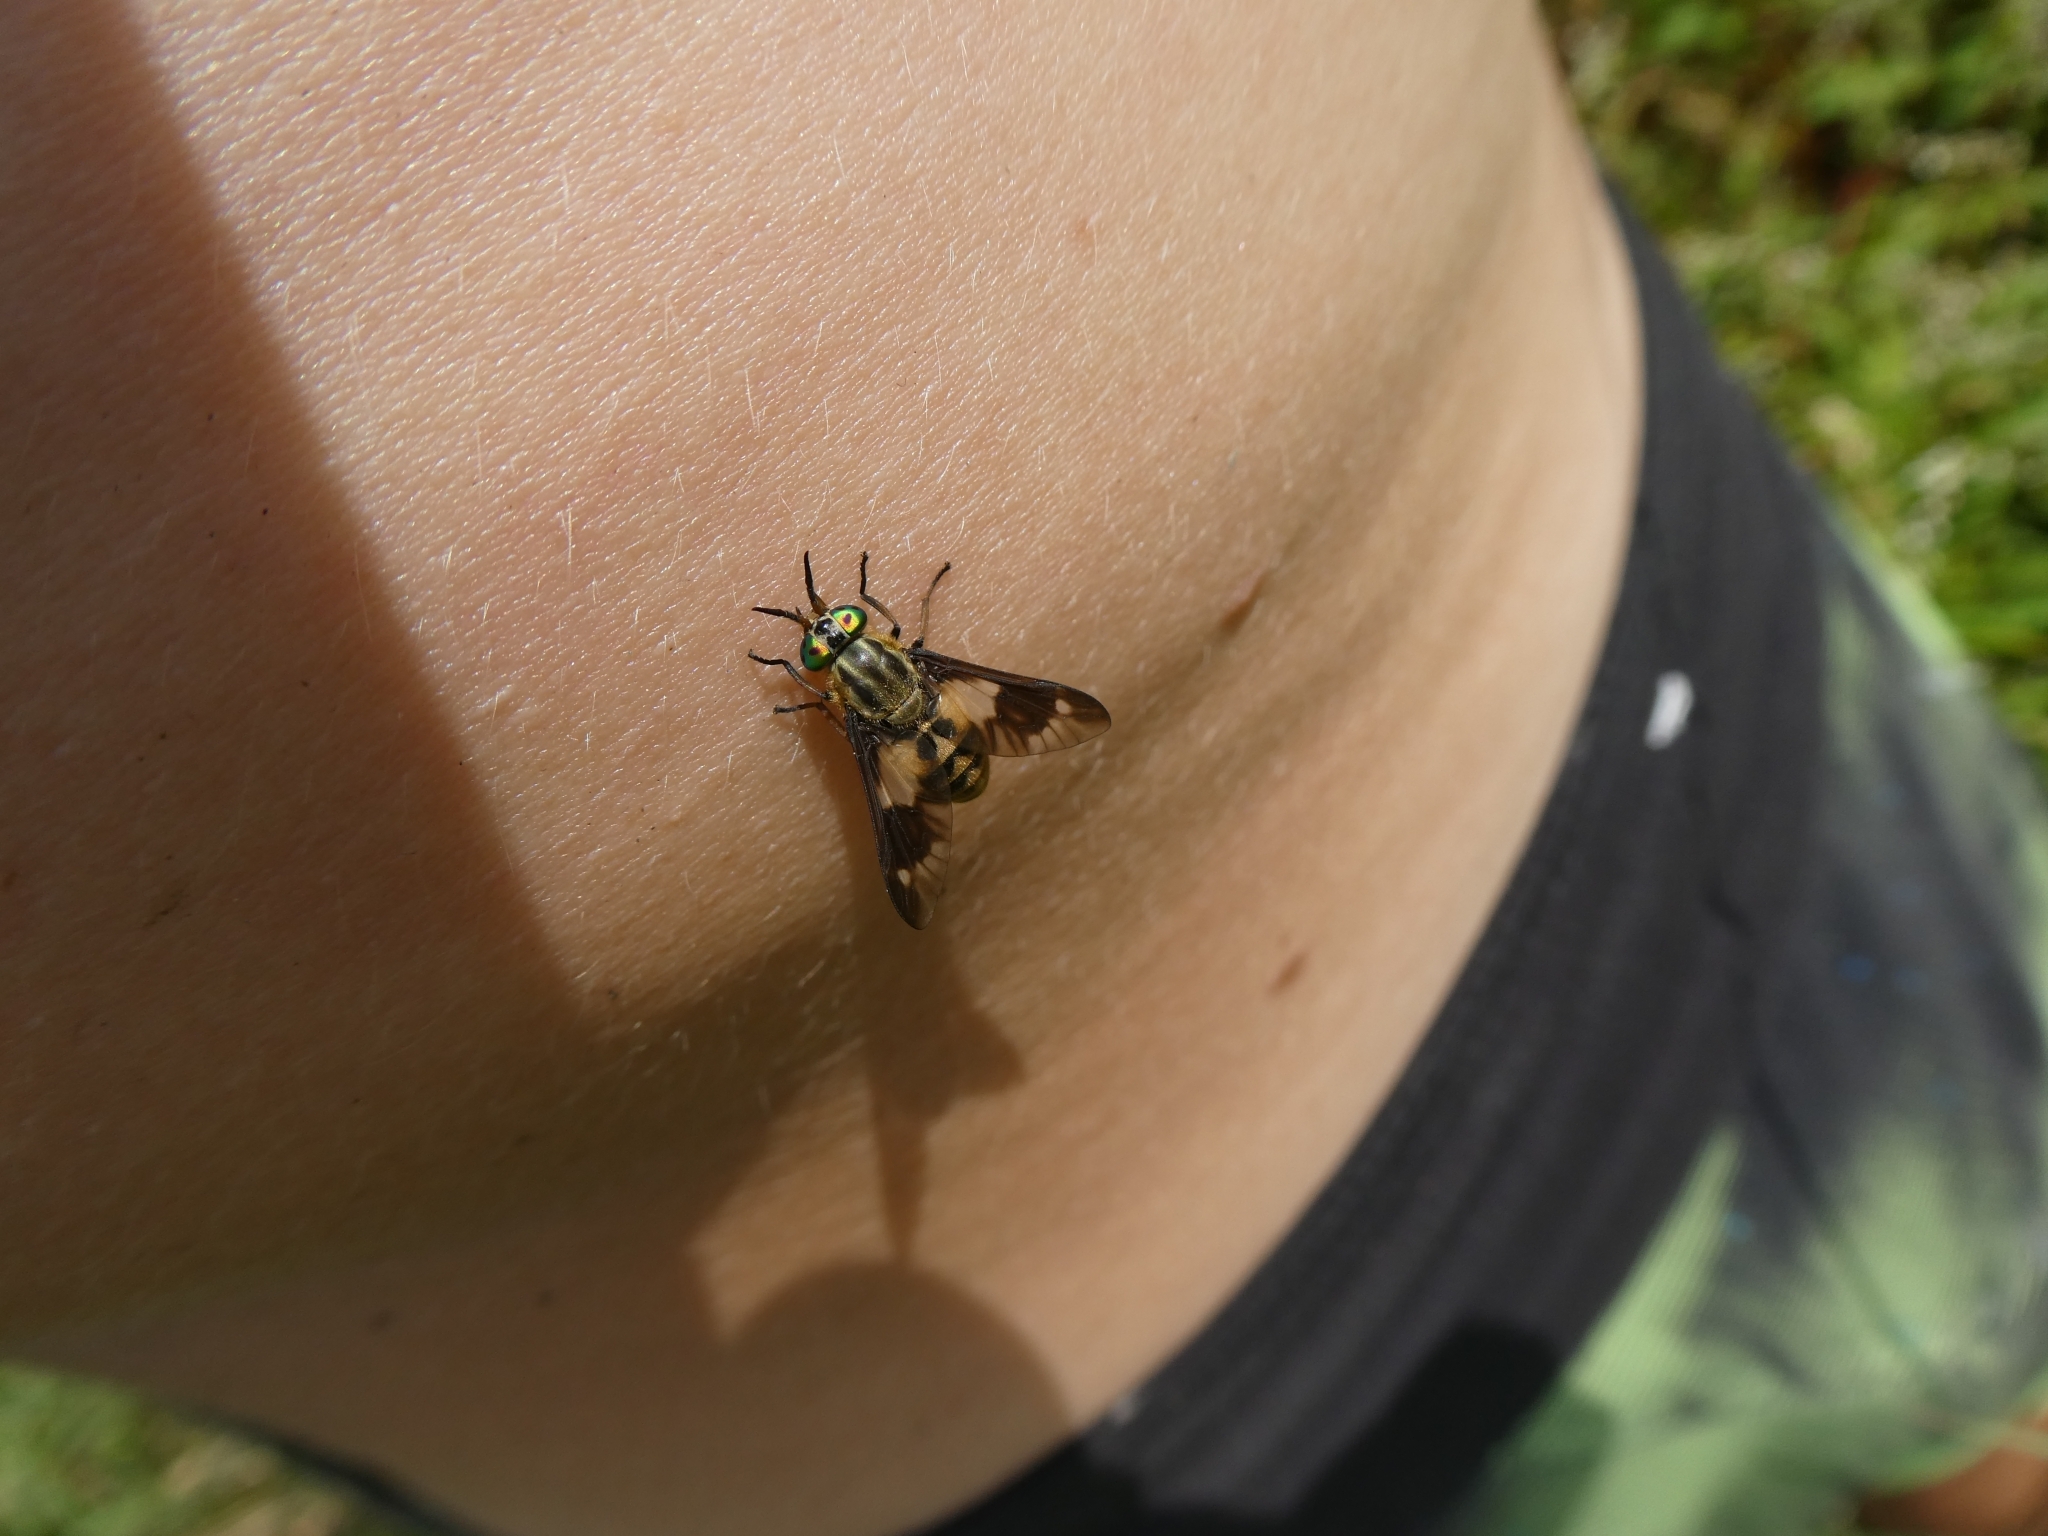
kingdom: Animalia
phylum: Arthropoda
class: Insecta
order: Diptera
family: Tabanidae
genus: Chrysops
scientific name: Chrysops relictus
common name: Twin-lobed deerfly
